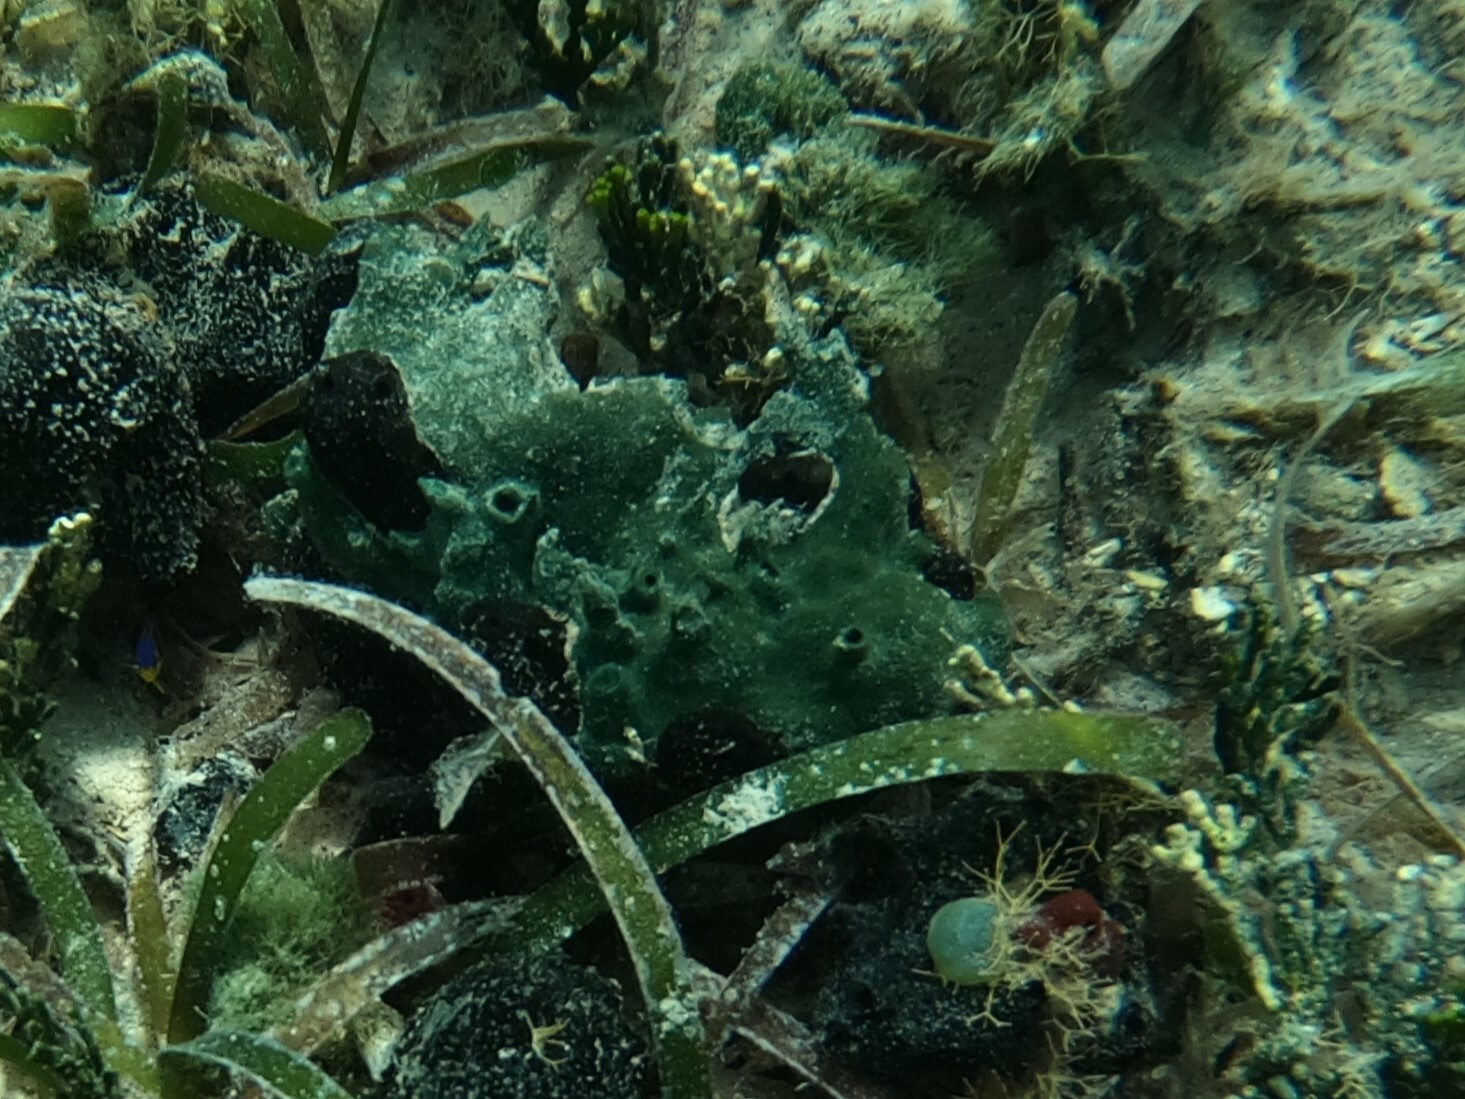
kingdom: Animalia
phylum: Porifera
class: Demospongiae
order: Haplosclerida
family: Niphatidae
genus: Amphimedon
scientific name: Amphimedon viridis
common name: Green sponge
